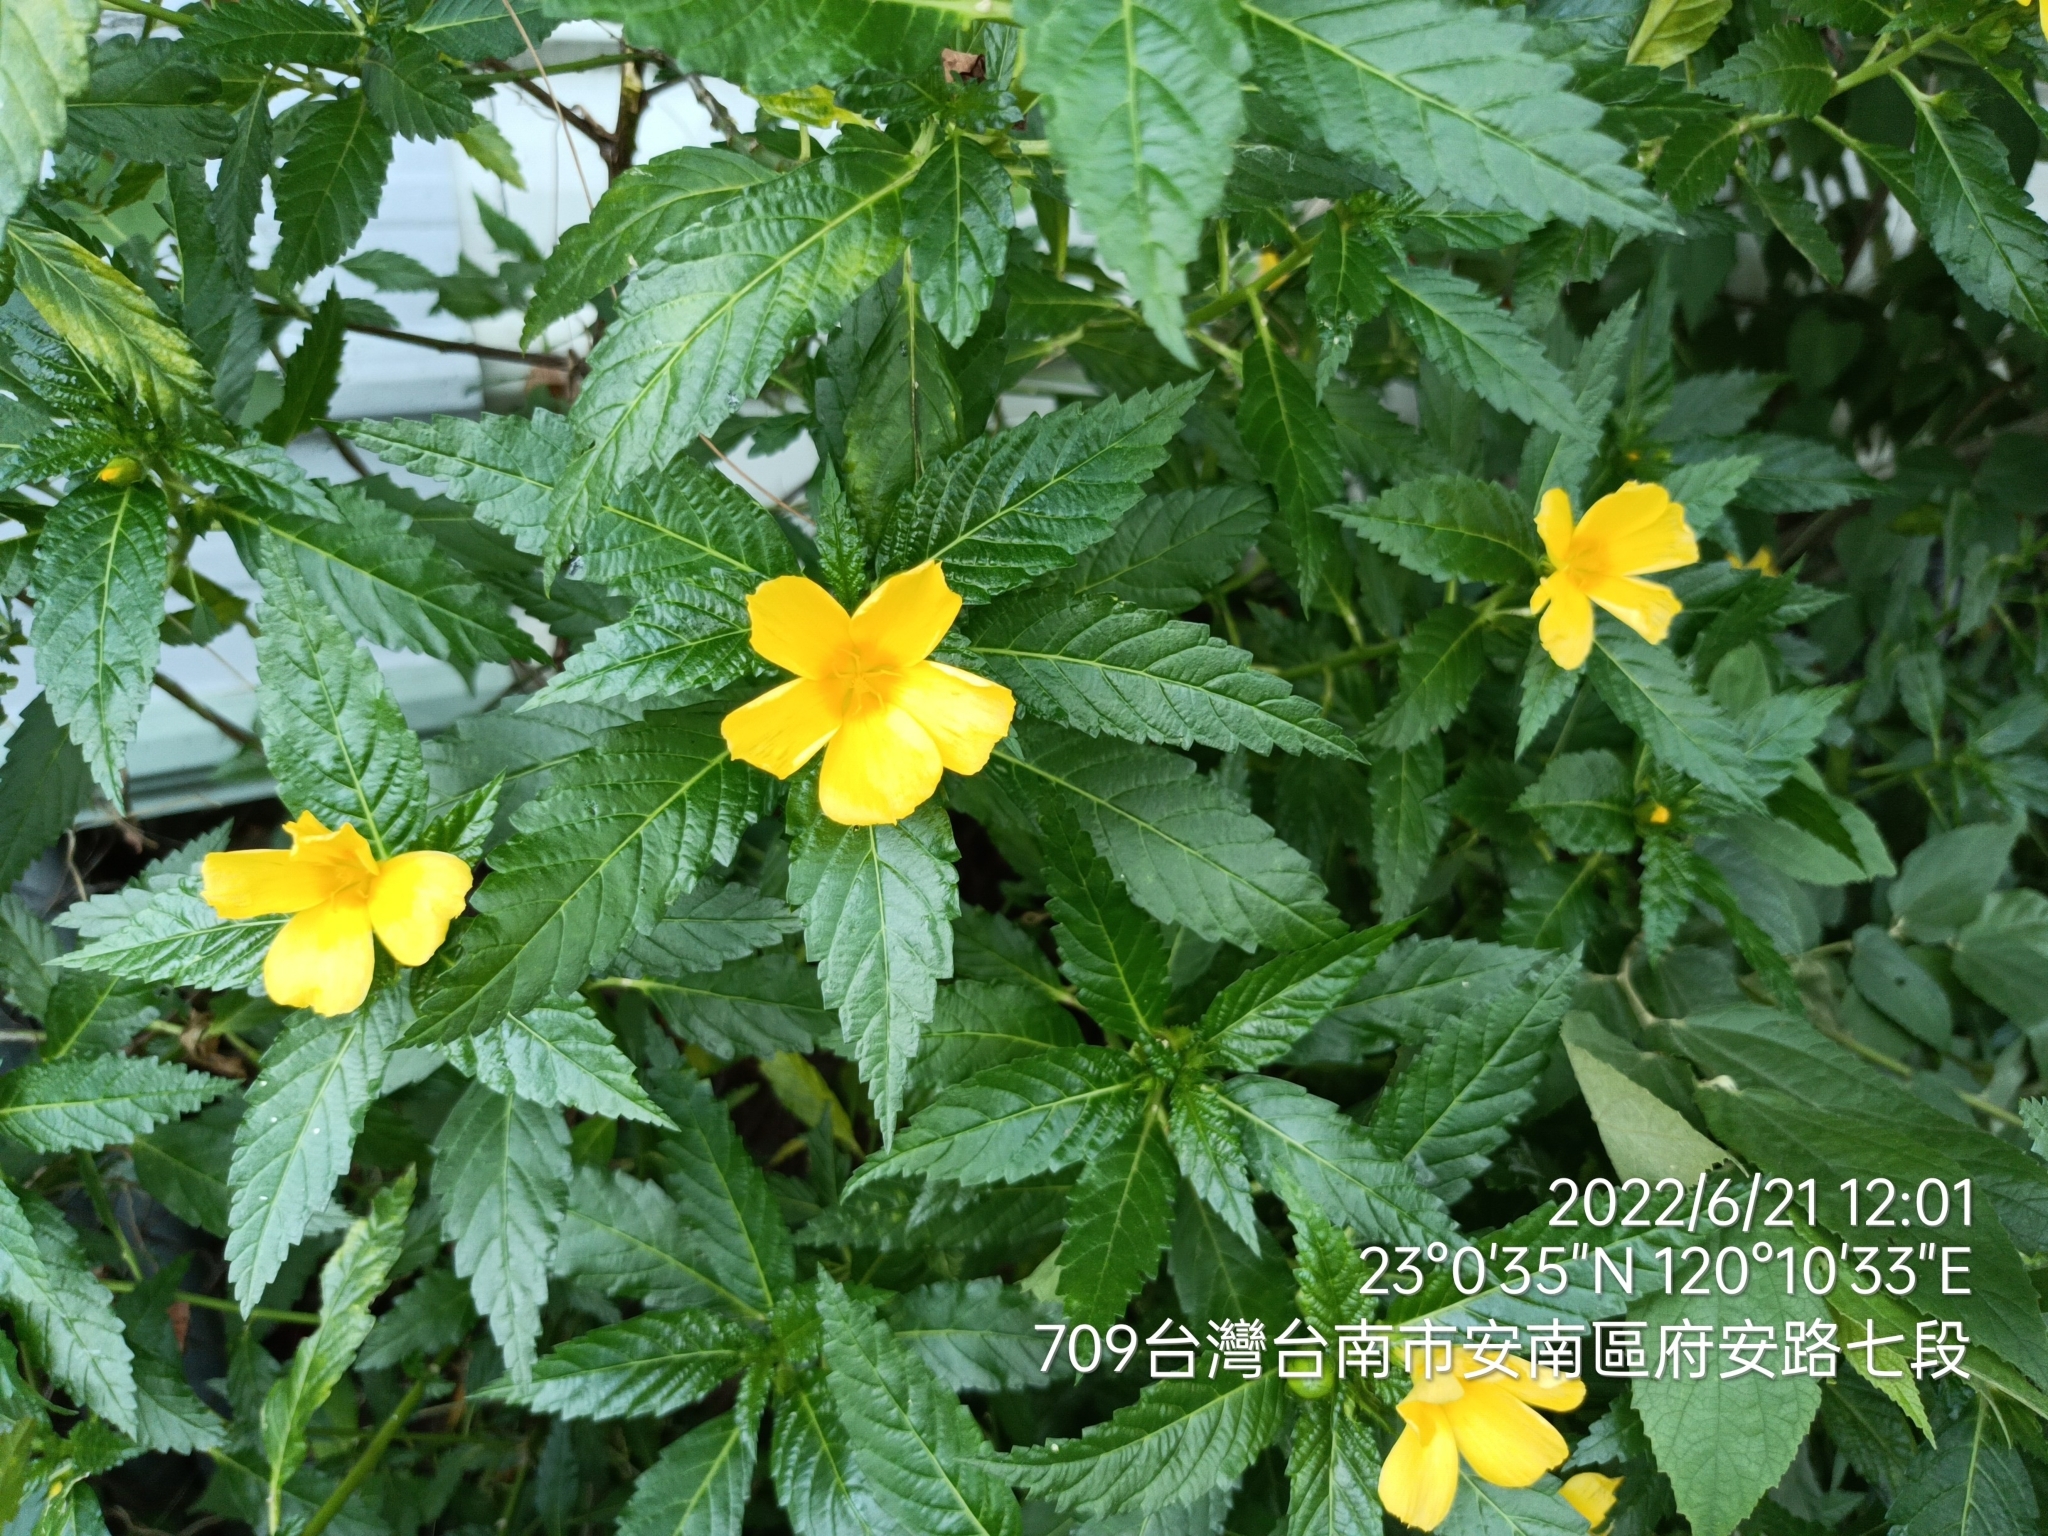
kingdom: Plantae
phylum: Tracheophyta
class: Magnoliopsida
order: Malpighiales
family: Turneraceae
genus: Turnera
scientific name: Turnera ulmifolia
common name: Ramgoat dashalong
